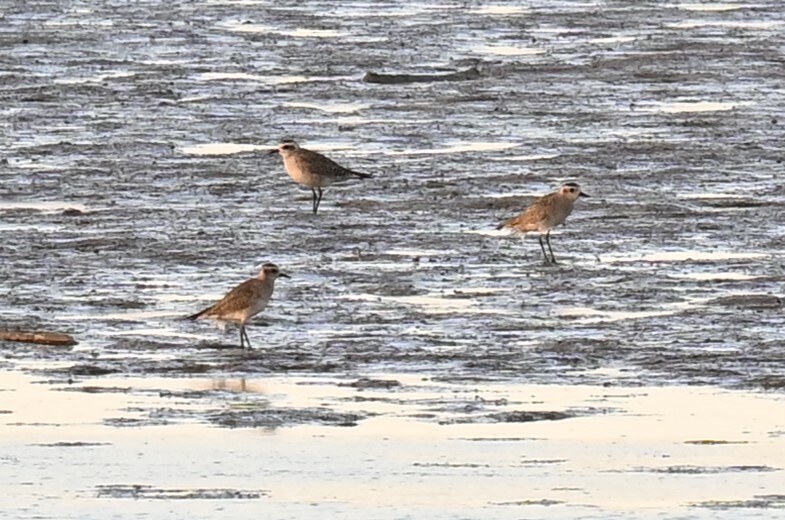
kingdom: Animalia
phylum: Chordata
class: Aves
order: Charadriiformes
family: Charadriidae
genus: Pluvialis
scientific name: Pluvialis dominica
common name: American golden plover
